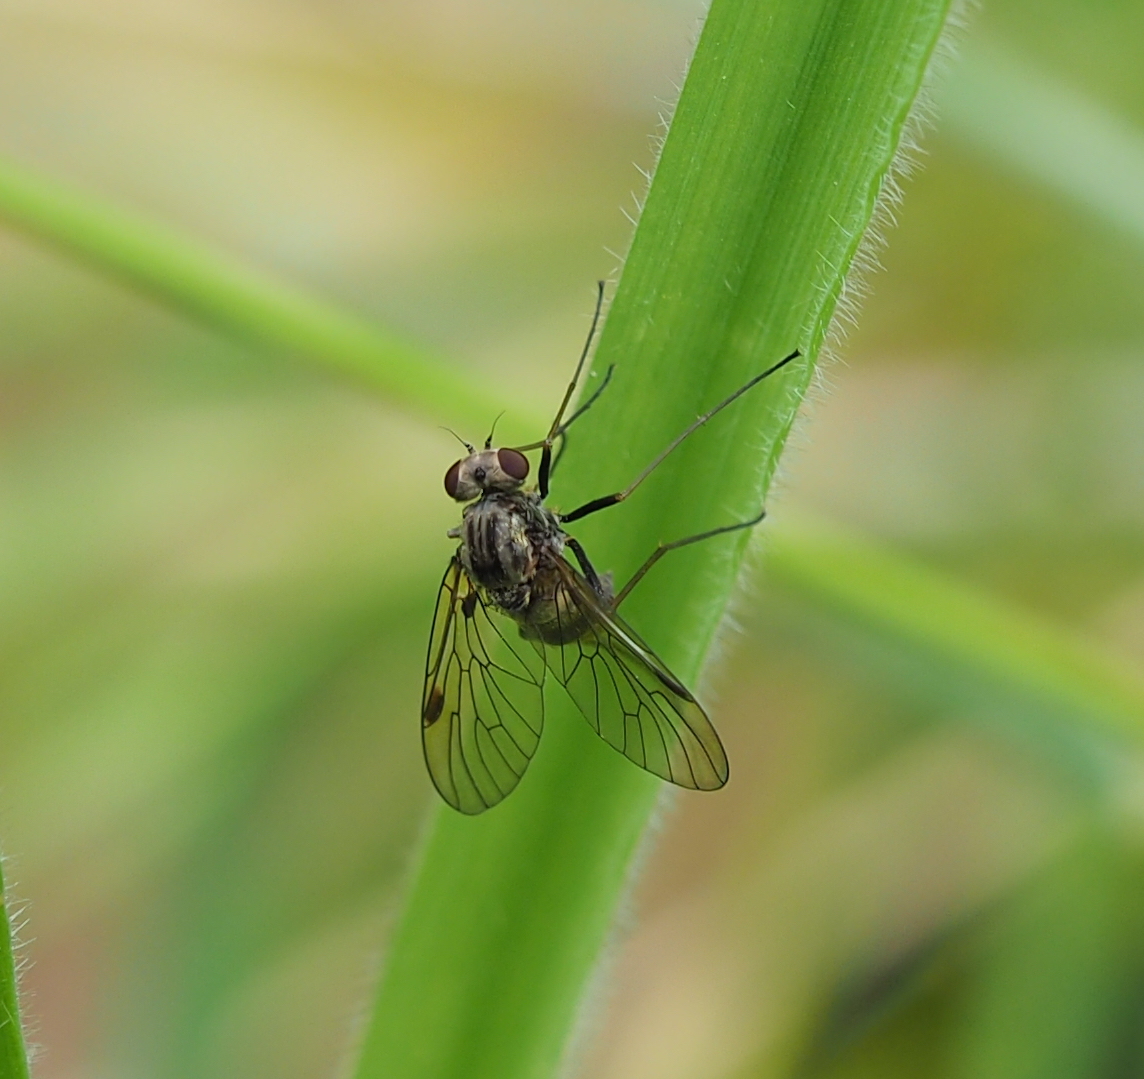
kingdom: Animalia
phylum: Arthropoda
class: Insecta
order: Diptera
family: Rhagionidae
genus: Chrysopilus
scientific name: Chrysopilus cristatus
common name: Black snipefly
